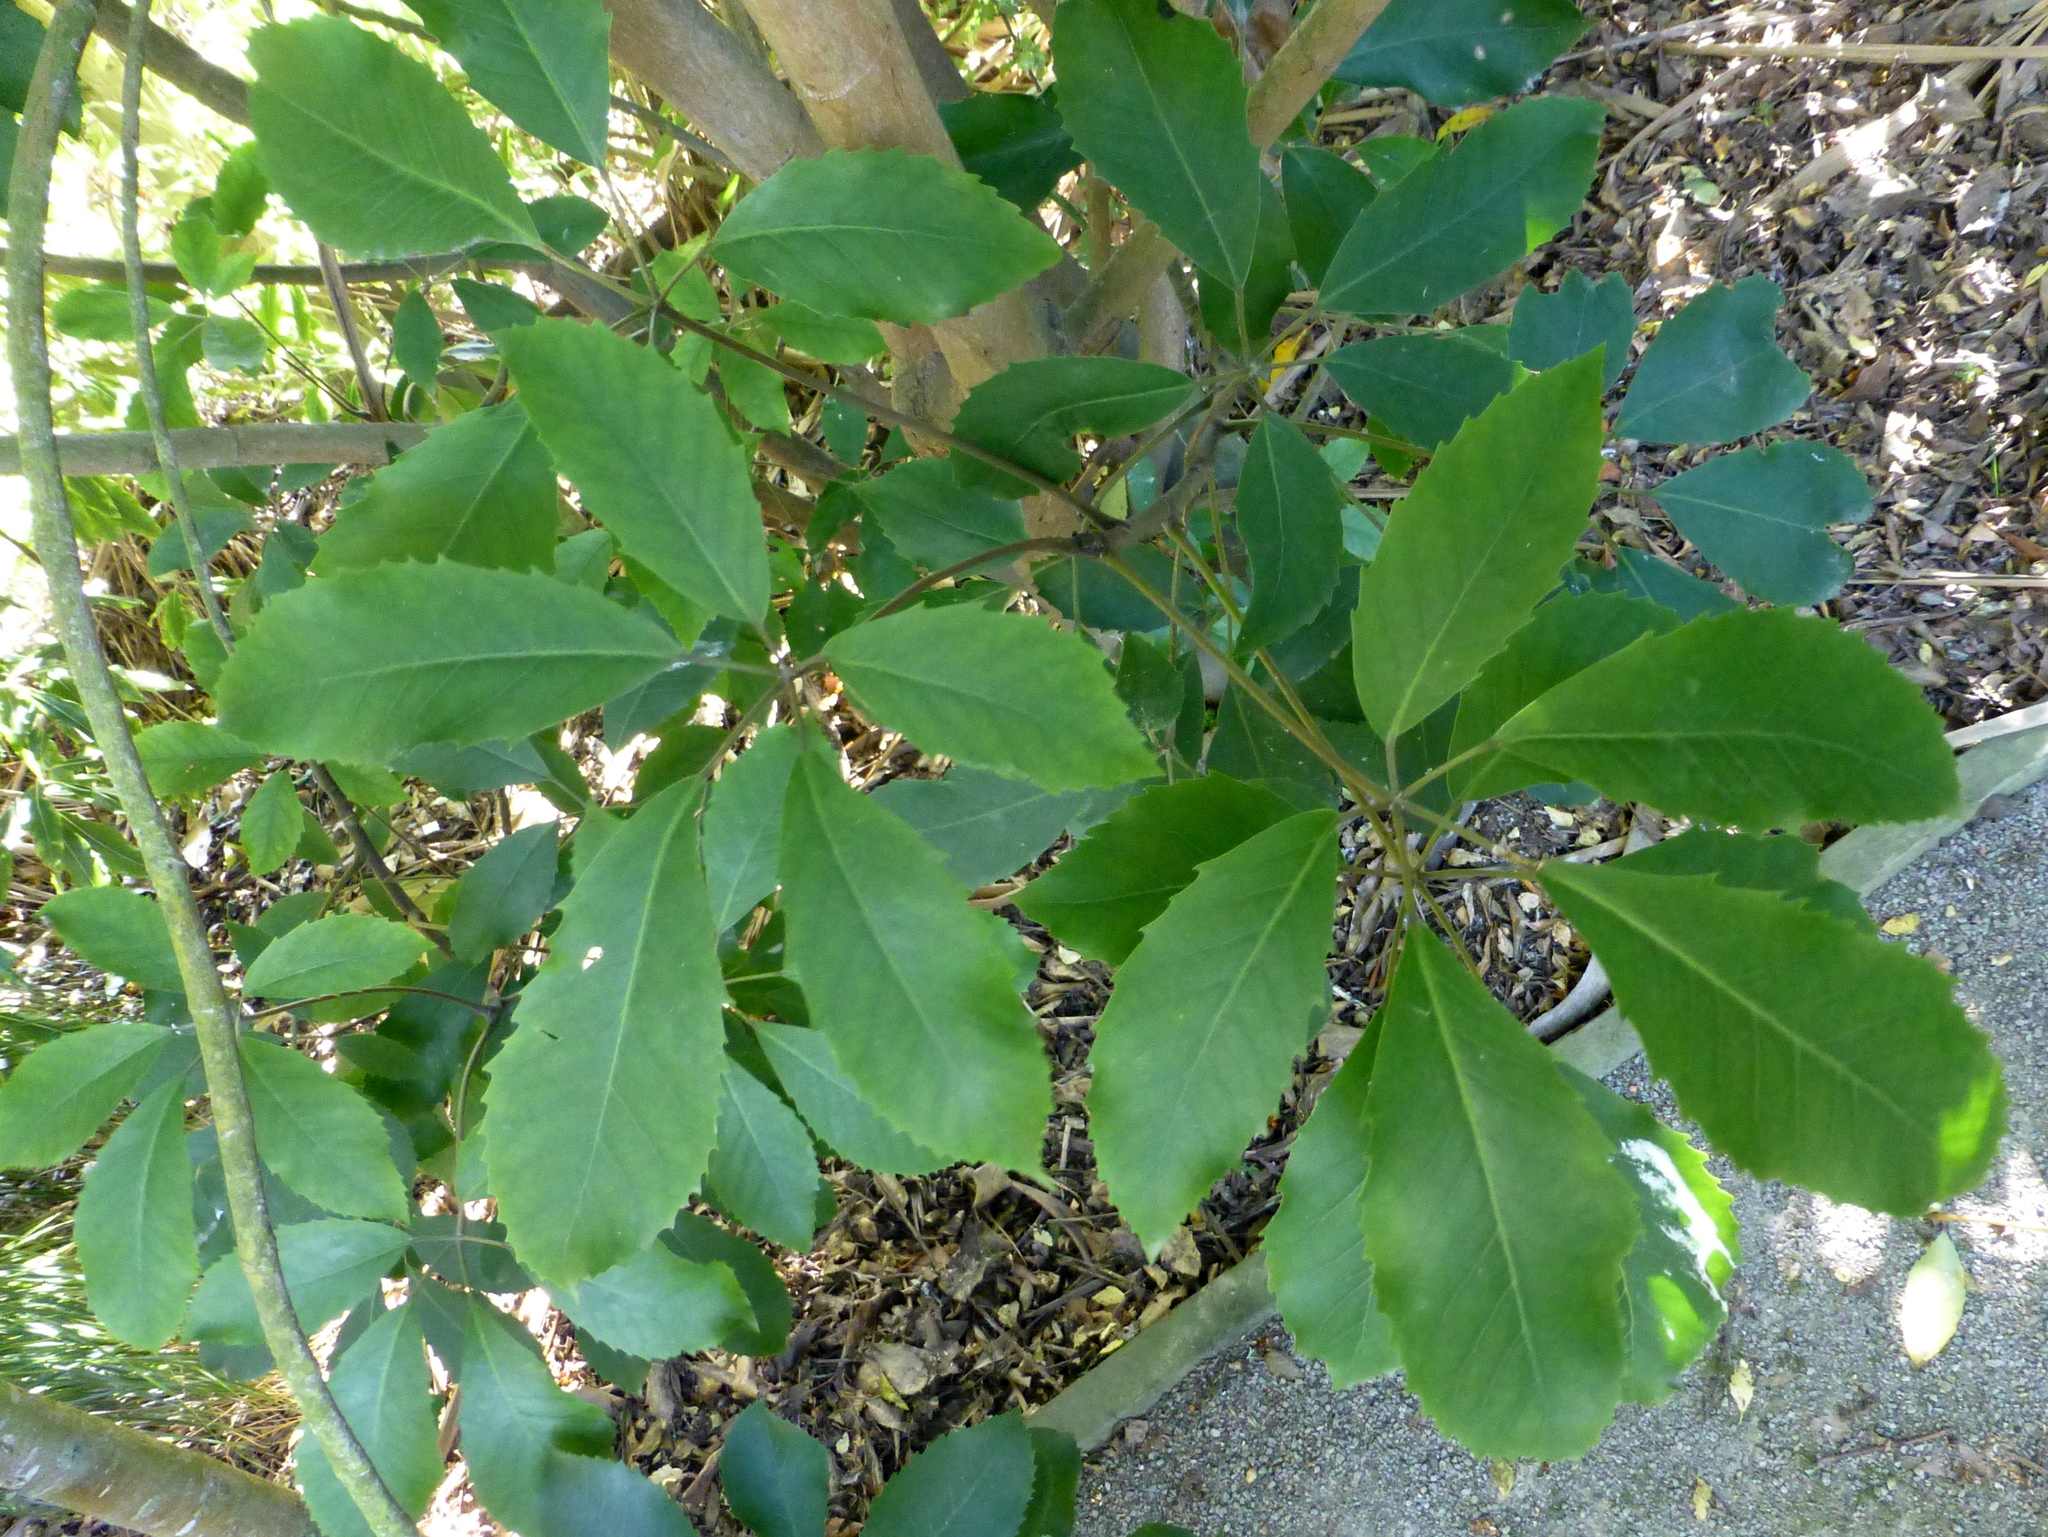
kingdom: Plantae
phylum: Tracheophyta
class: Magnoliopsida
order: Apiales
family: Araliaceae
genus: Neopanax
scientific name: Neopanax arboreus
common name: Five-fingers
